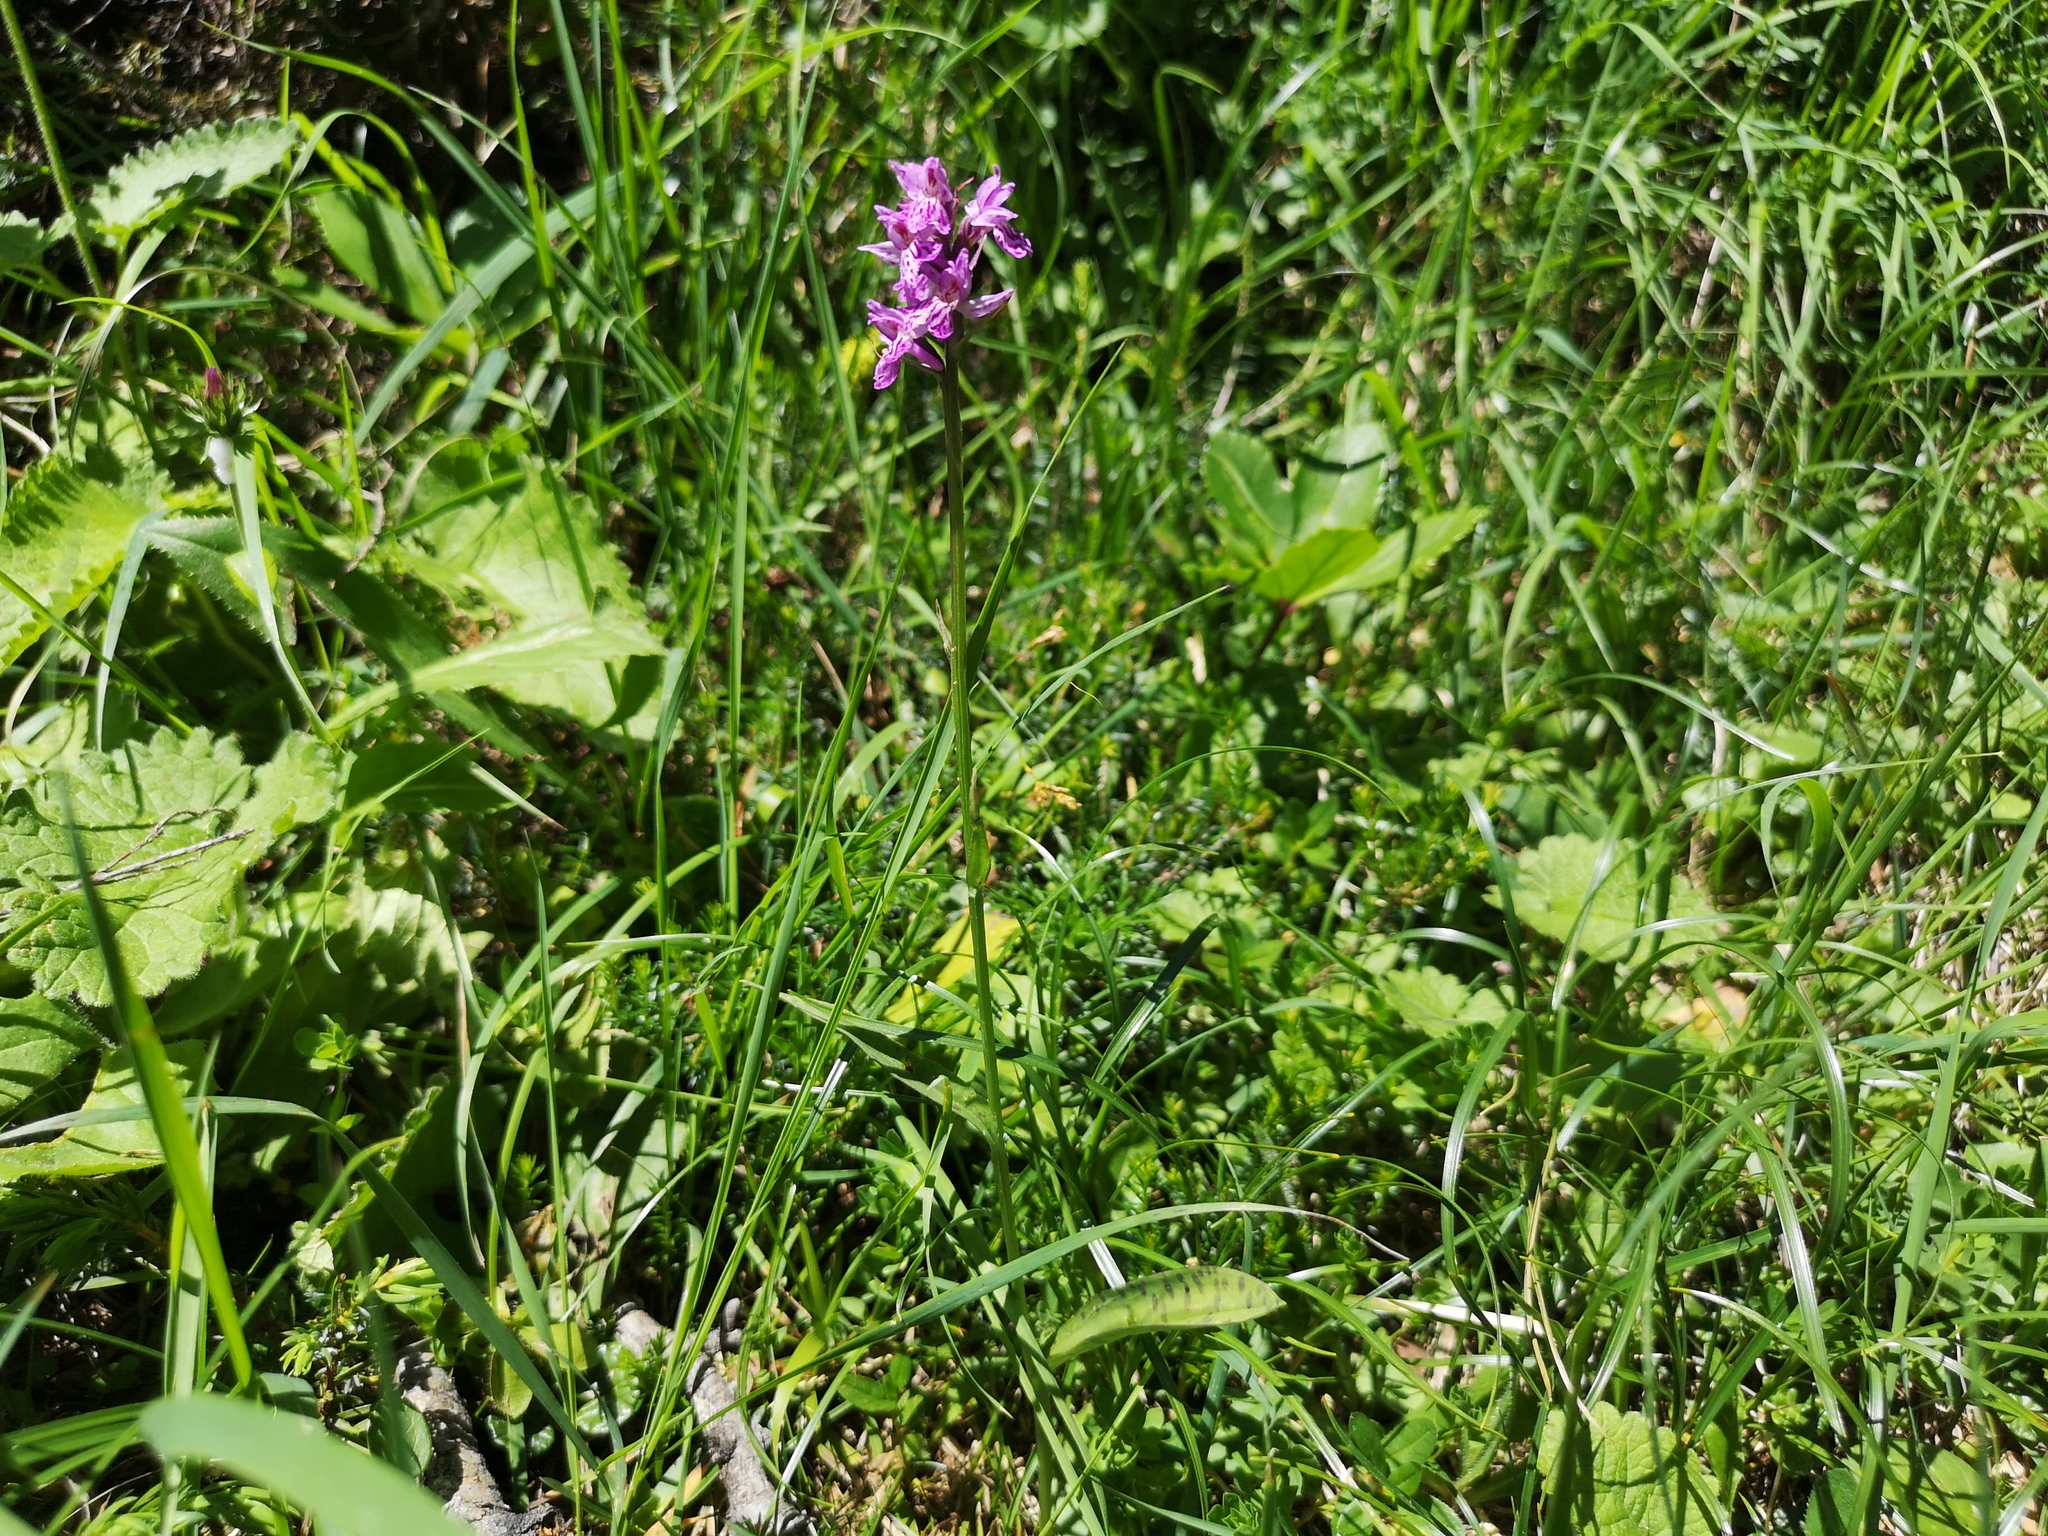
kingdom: Plantae
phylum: Tracheophyta
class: Liliopsida
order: Asparagales
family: Orchidaceae
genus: Dactylorhiza
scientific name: Dactylorhiza maculata
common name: Heath spotted-orchid
